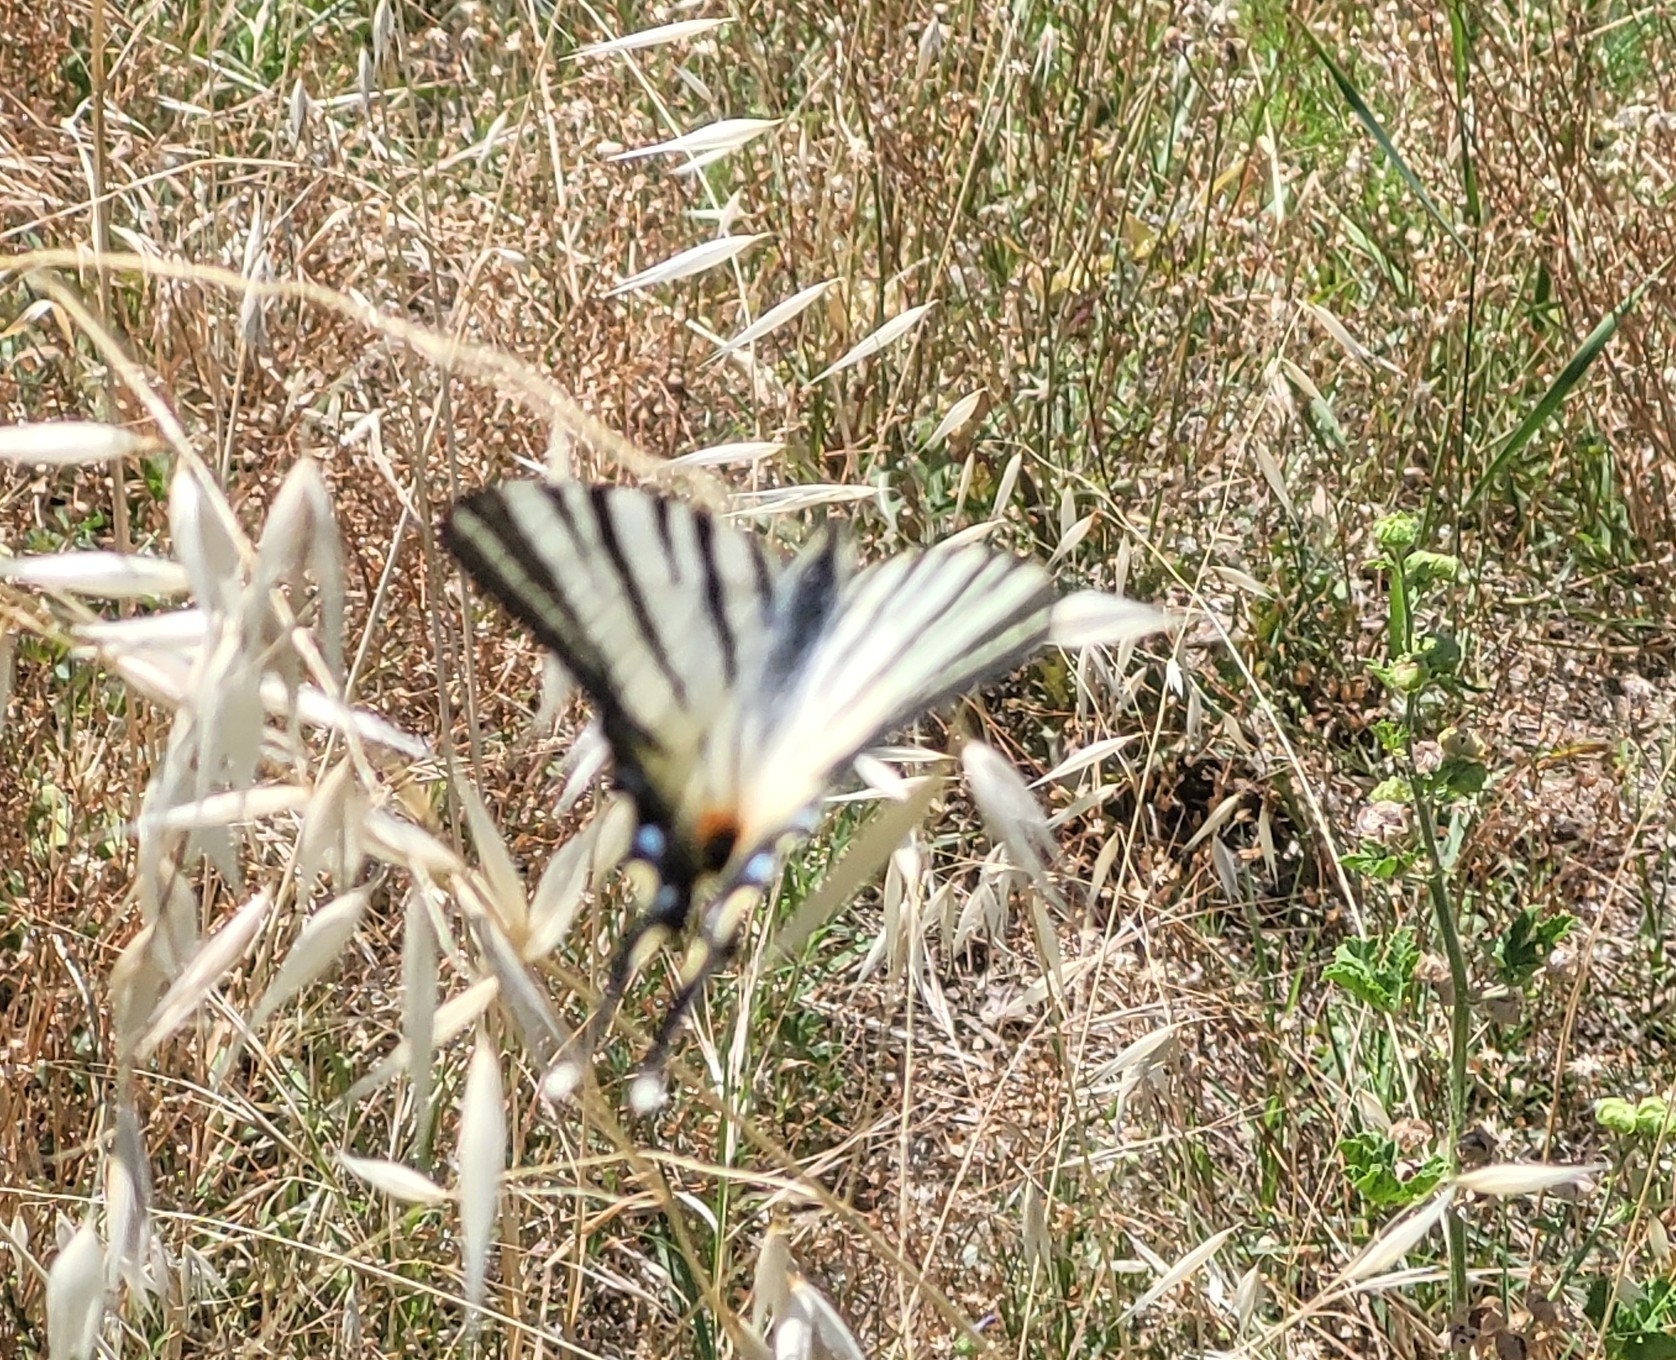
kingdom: Animalia
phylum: Arthropoda
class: Insecta
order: Lepidoptera
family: Papilionidae
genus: Iphiclides
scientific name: Iphiclides podalirius
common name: Scarce swallowtail
